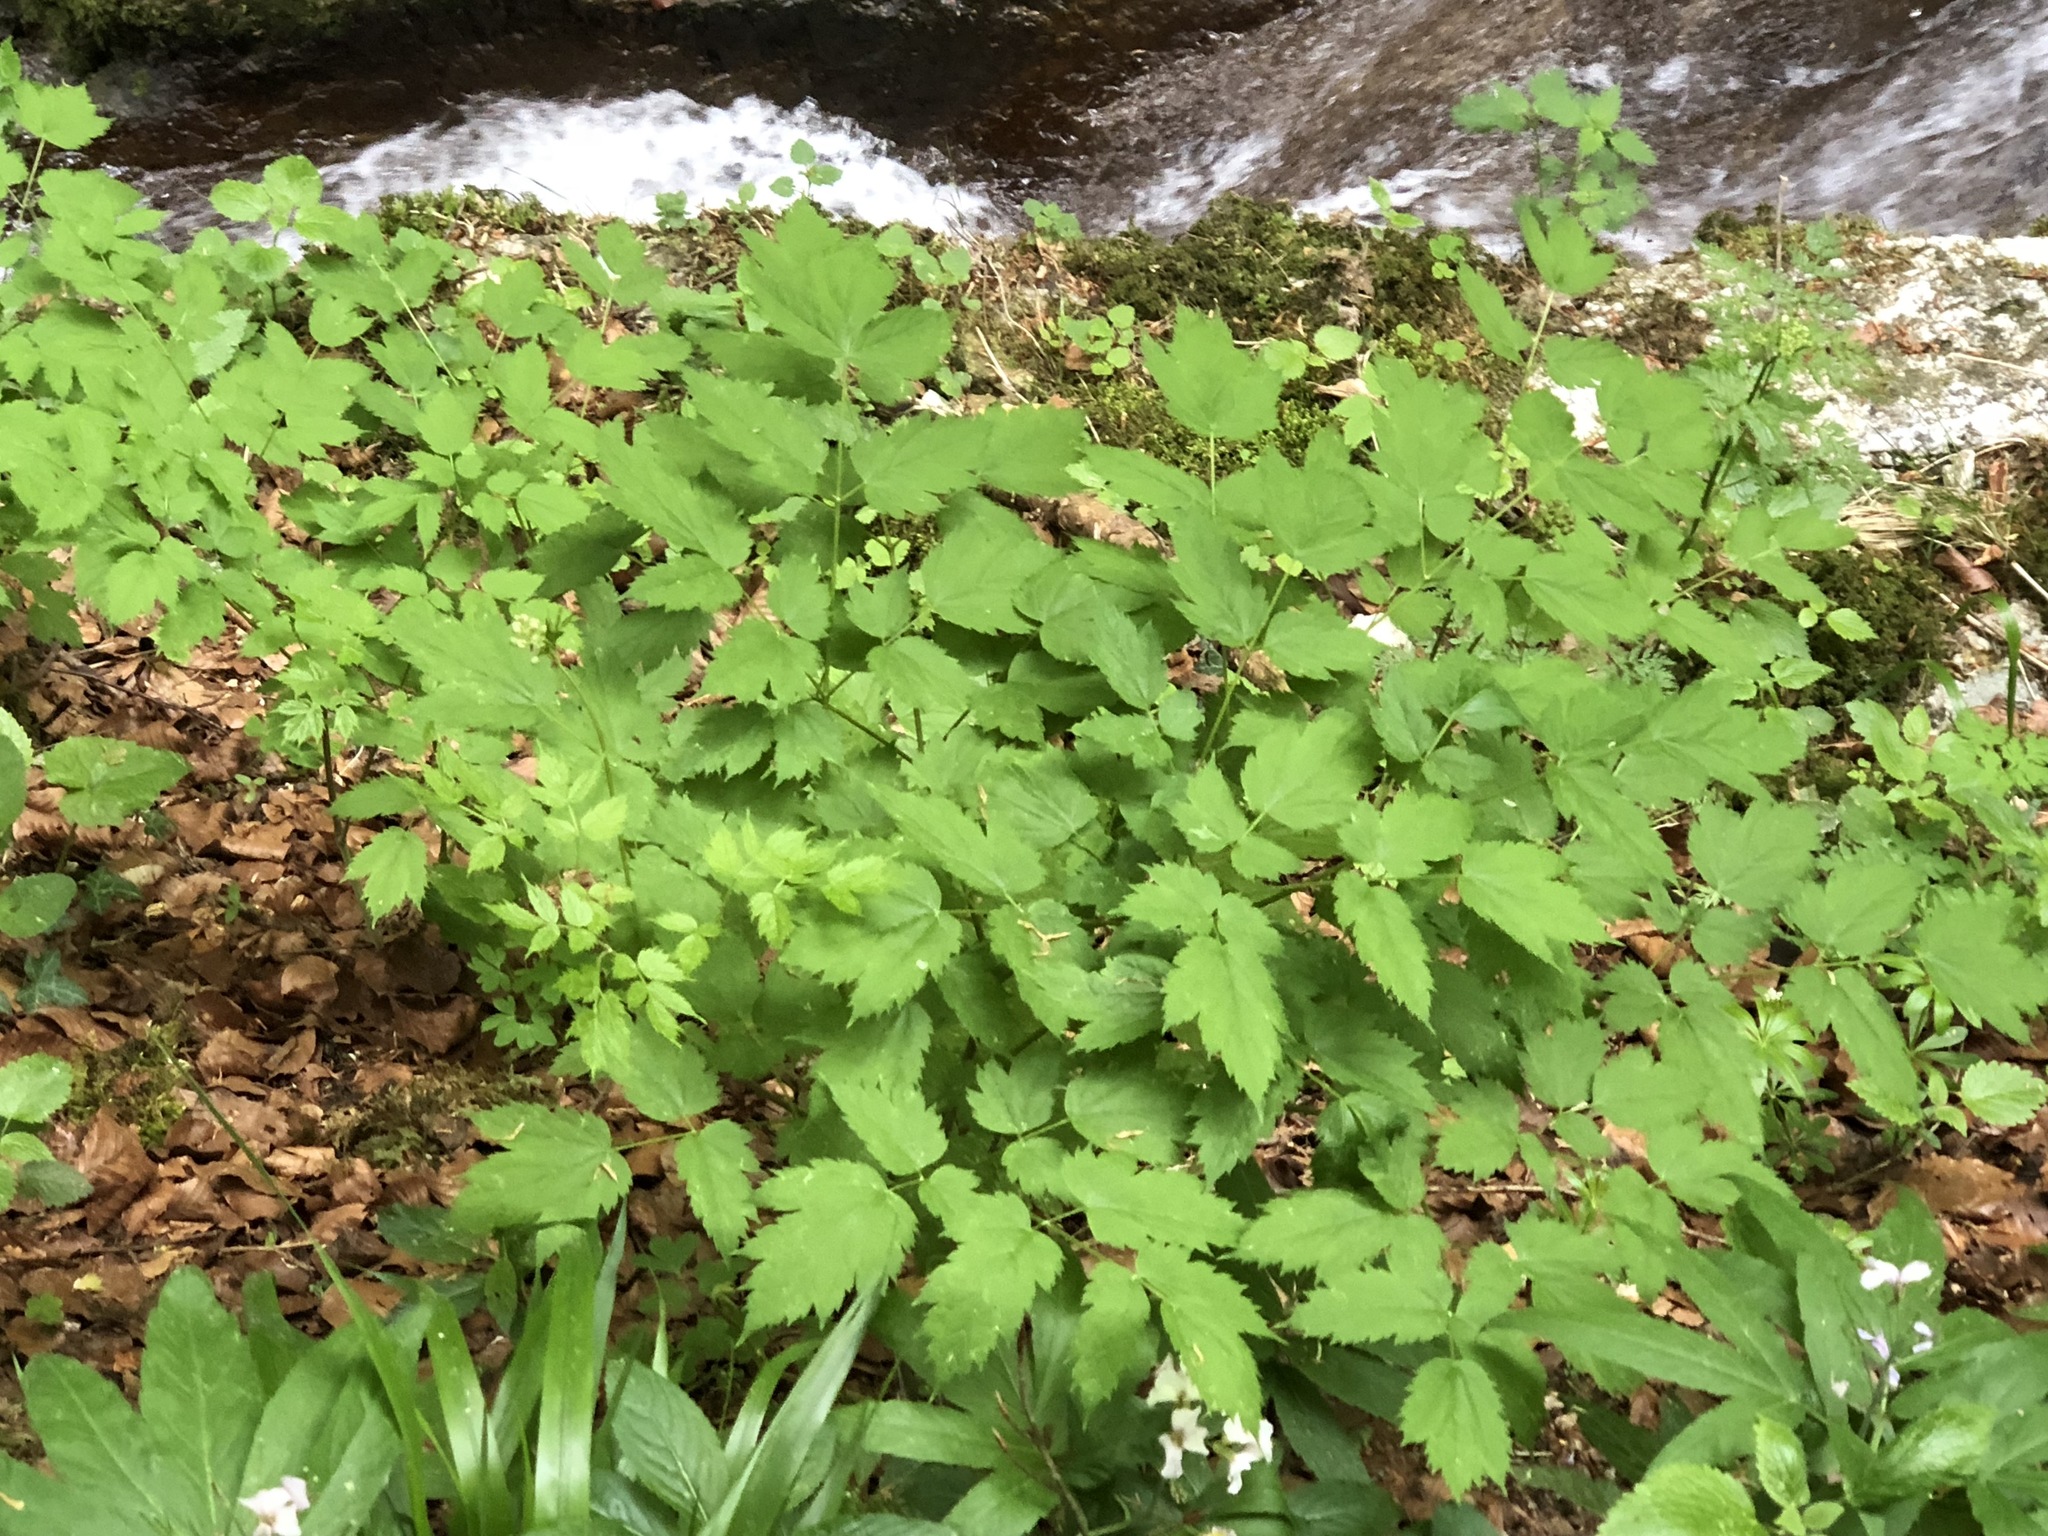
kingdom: Plantae
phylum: Tracheophyta
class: Magnoliopsida
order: Ranunculales
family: Ranunculaceae
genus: Actaea
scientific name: Actaea spicata
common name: Baneberry
